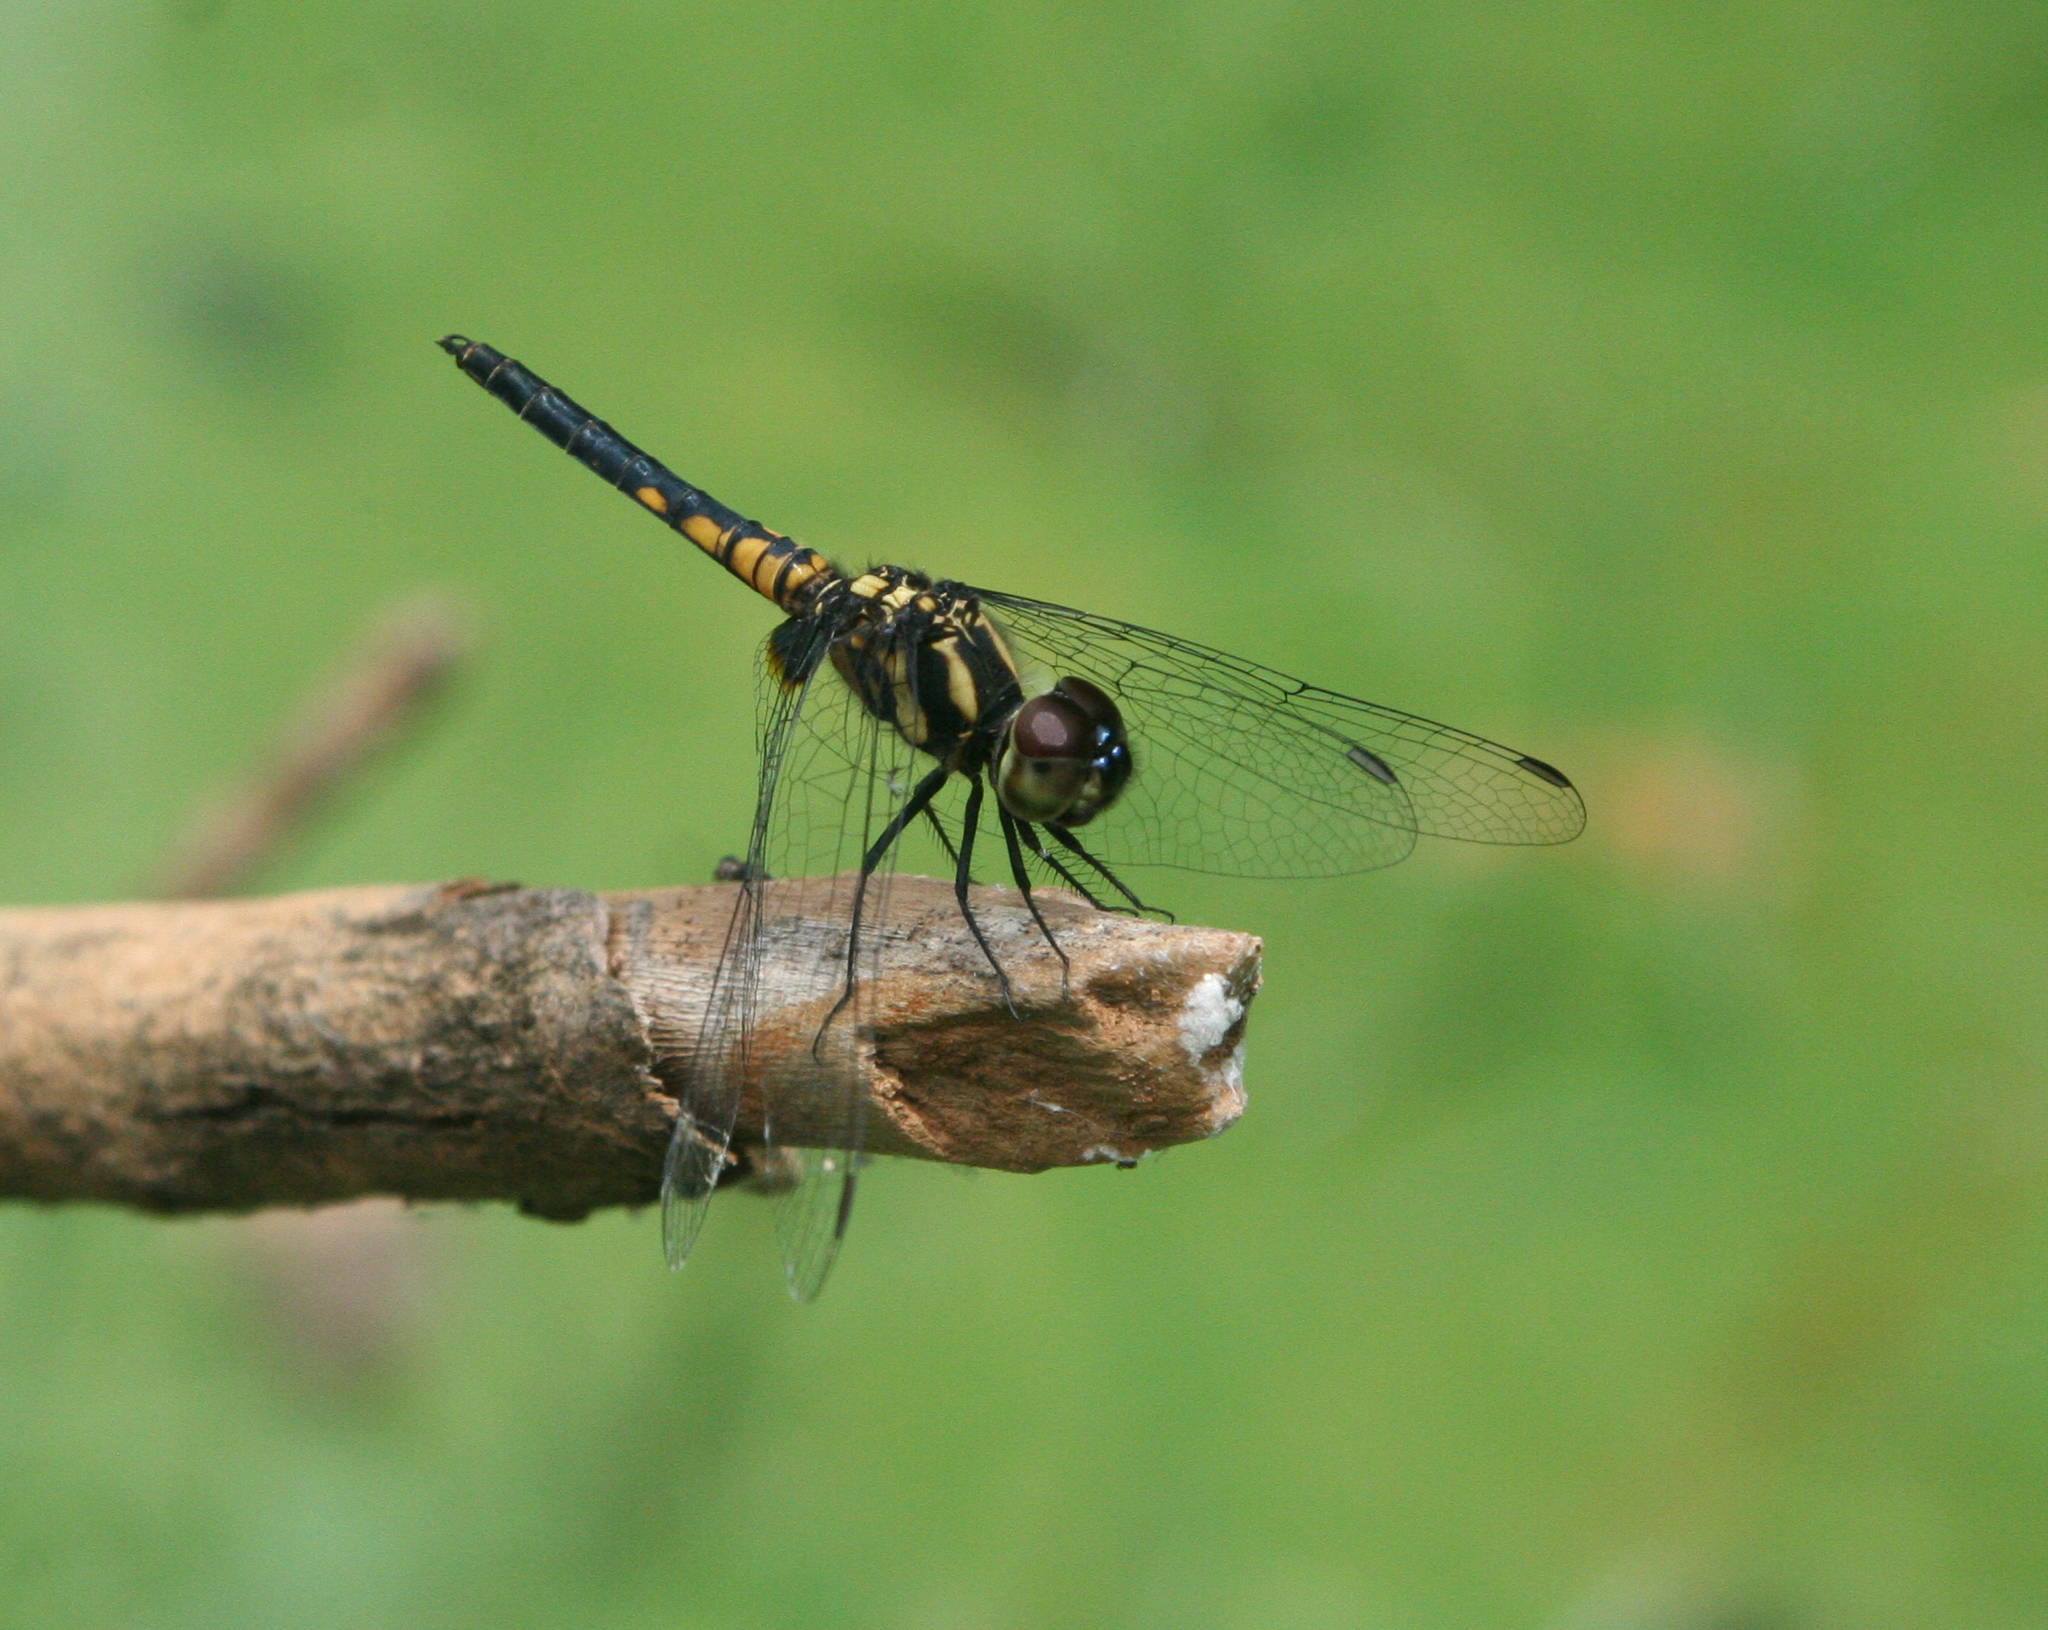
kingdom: Animalia
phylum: Arthropoda
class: Insecta
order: Odonata
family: Libellulidae
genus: Aethriamanta
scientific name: Aethriamanta aethra
